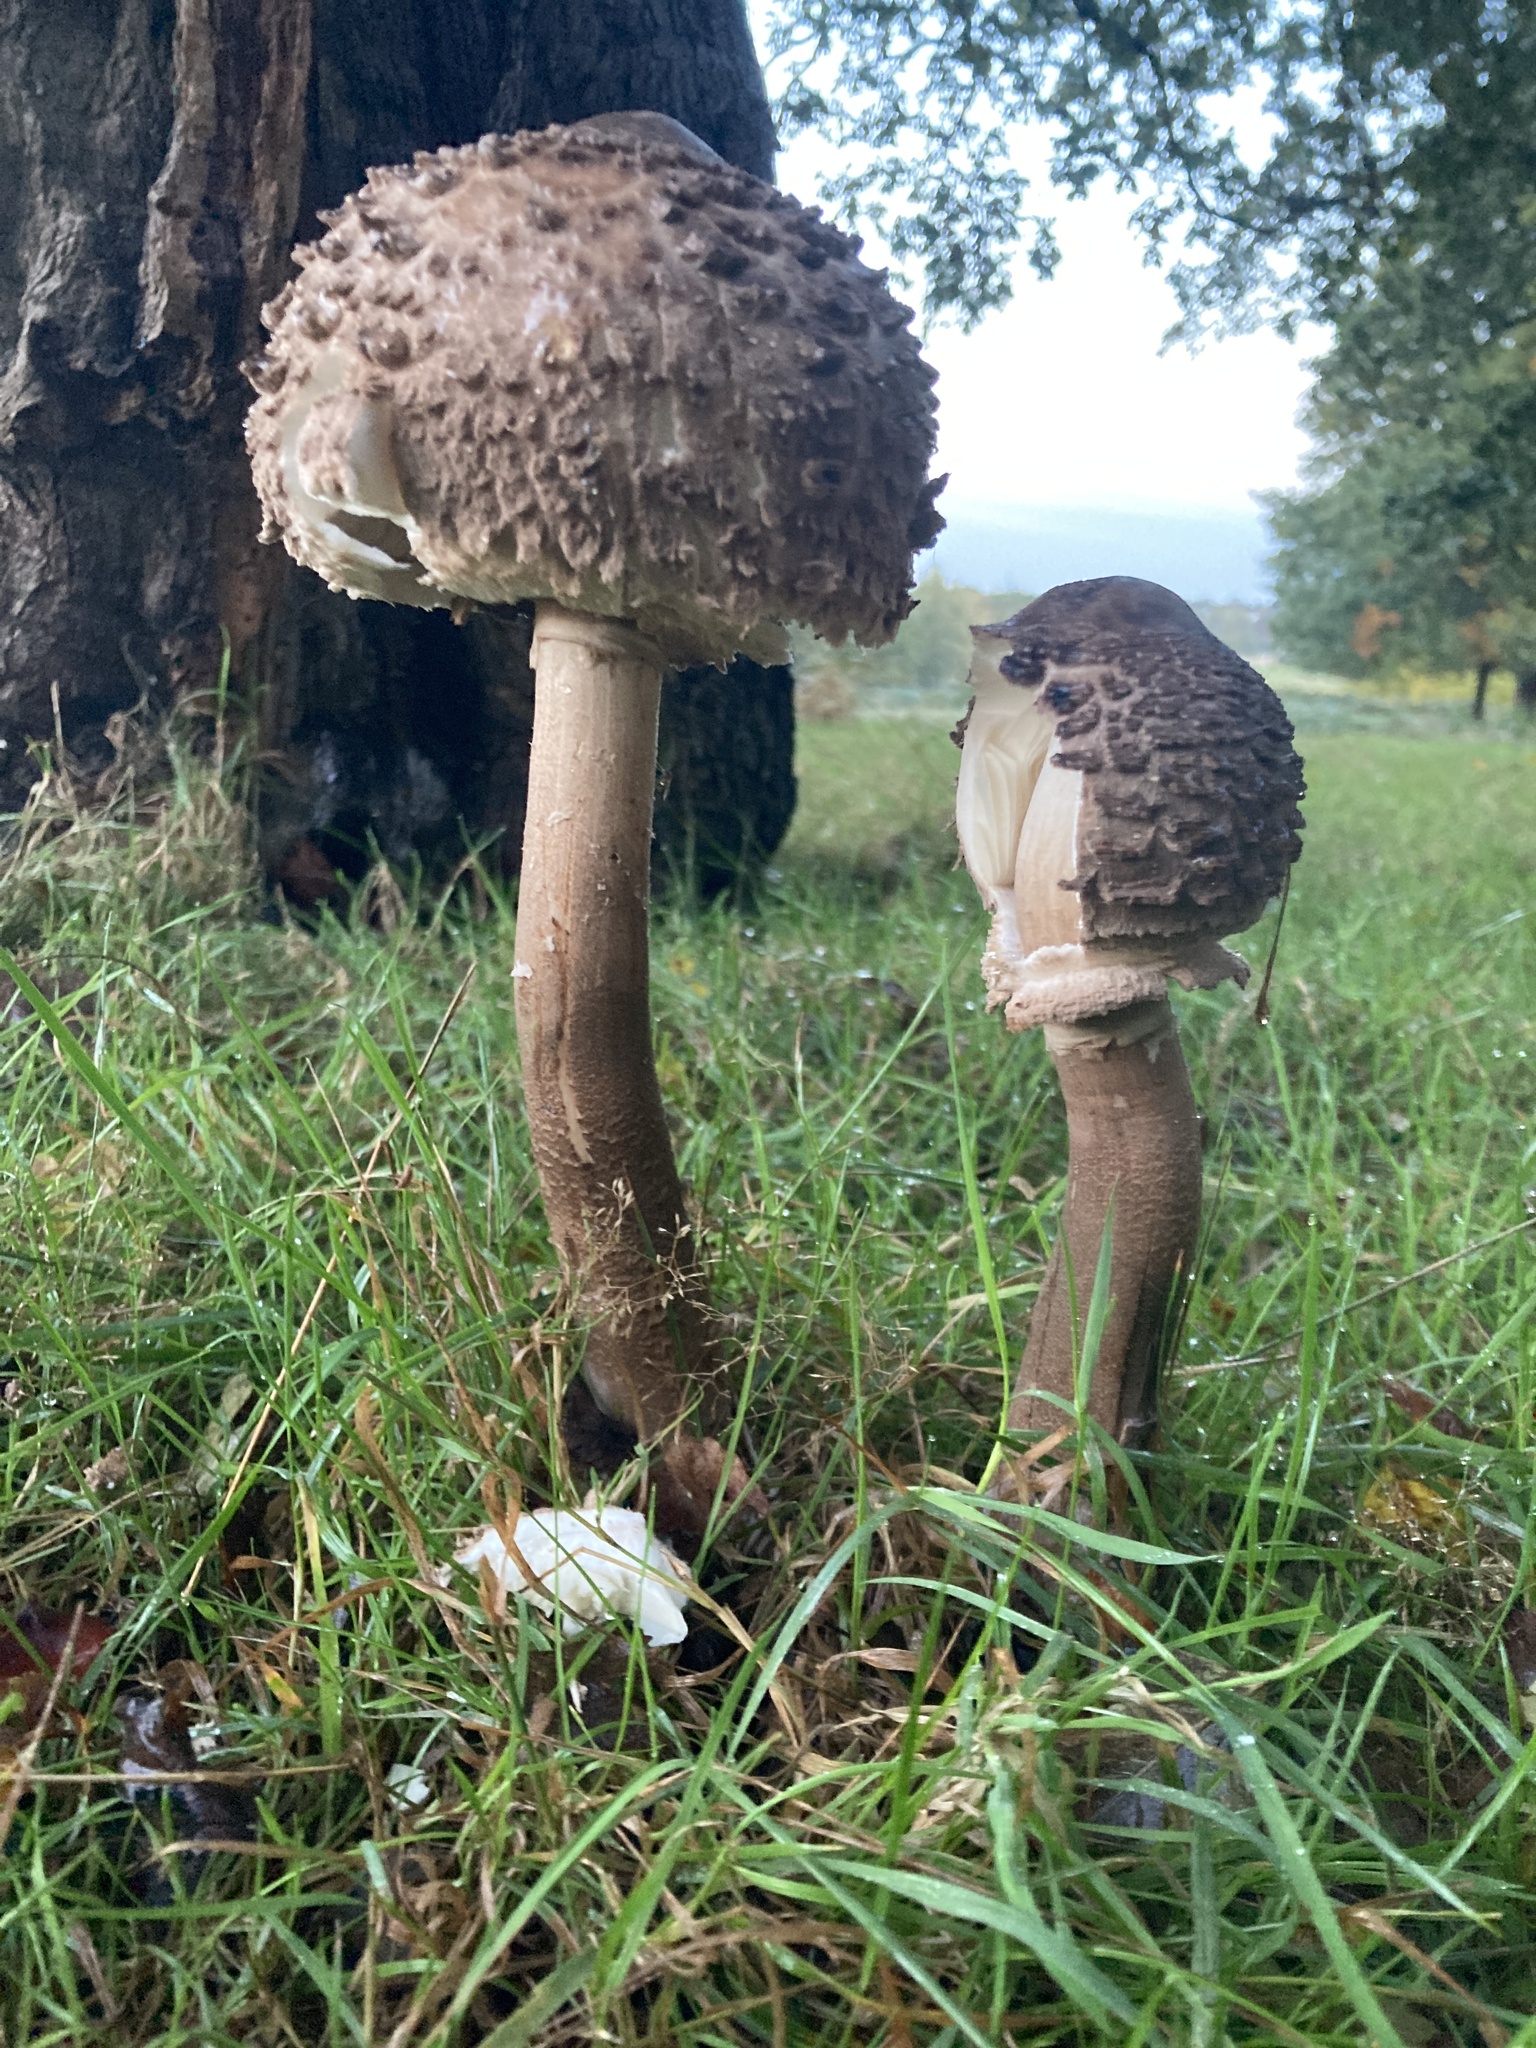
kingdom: Fungi
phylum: Basidiomycota
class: Agaricomycetes
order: Agaricales
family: Agaricaceae
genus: Macrolepiota
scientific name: Macrolepiota procera
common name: Parasol
